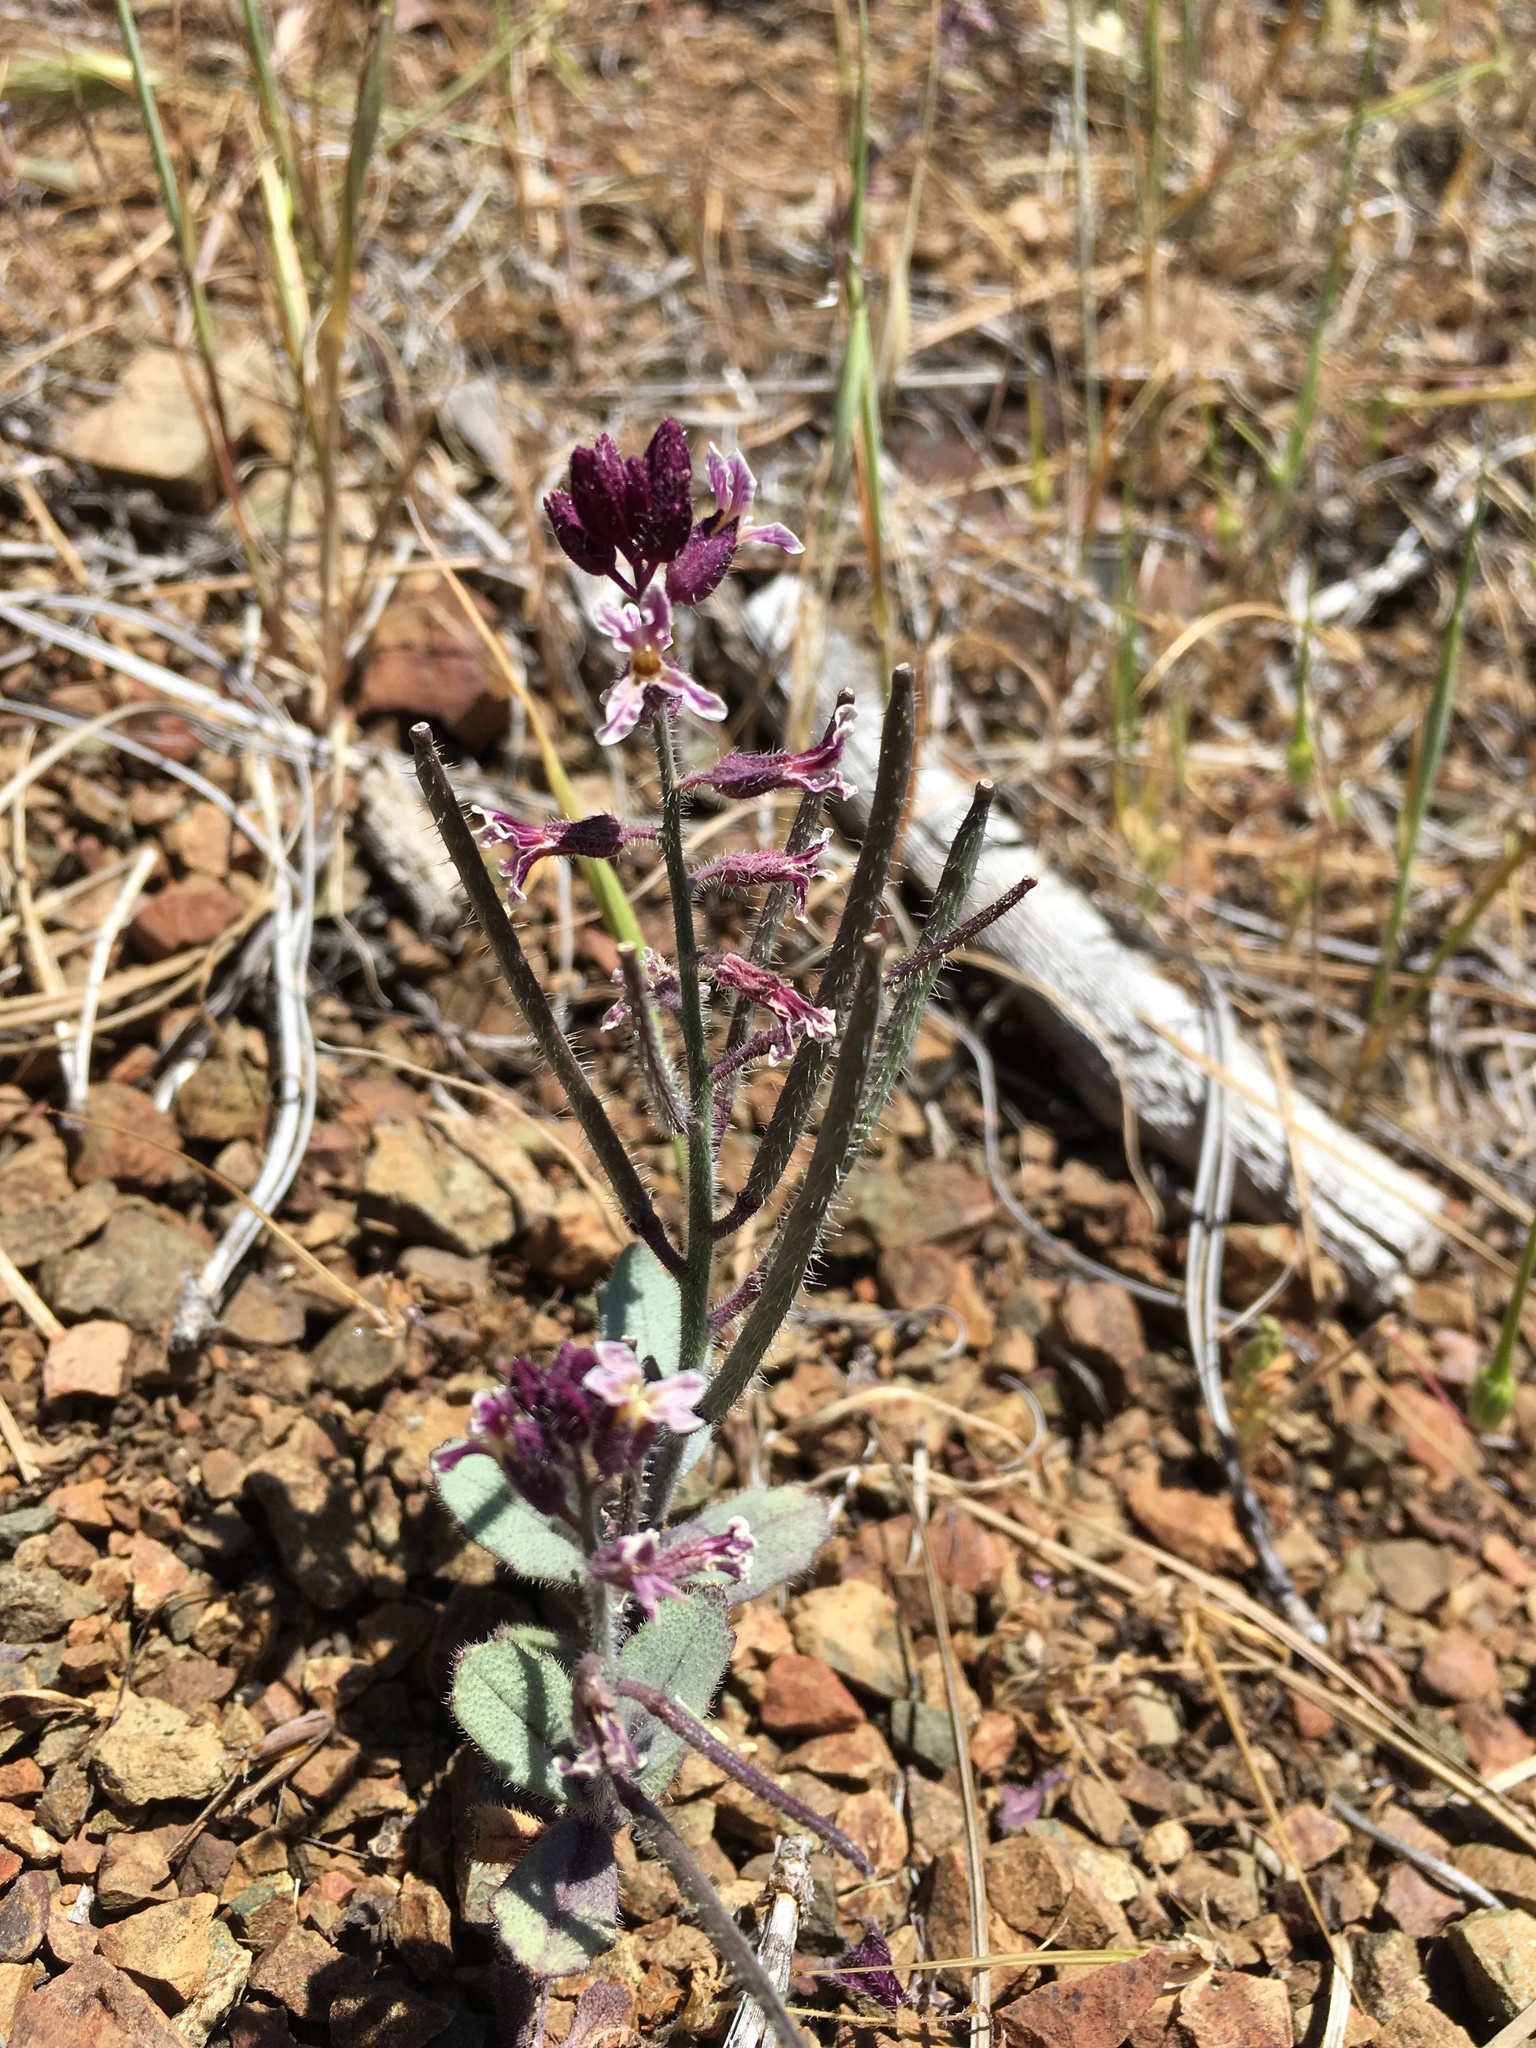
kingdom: Plantae
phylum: Tracheophyta
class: Magnoliopsida
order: Brassicales
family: Brassicaceae
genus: Streptanthus
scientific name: Streptanthus hispidus
